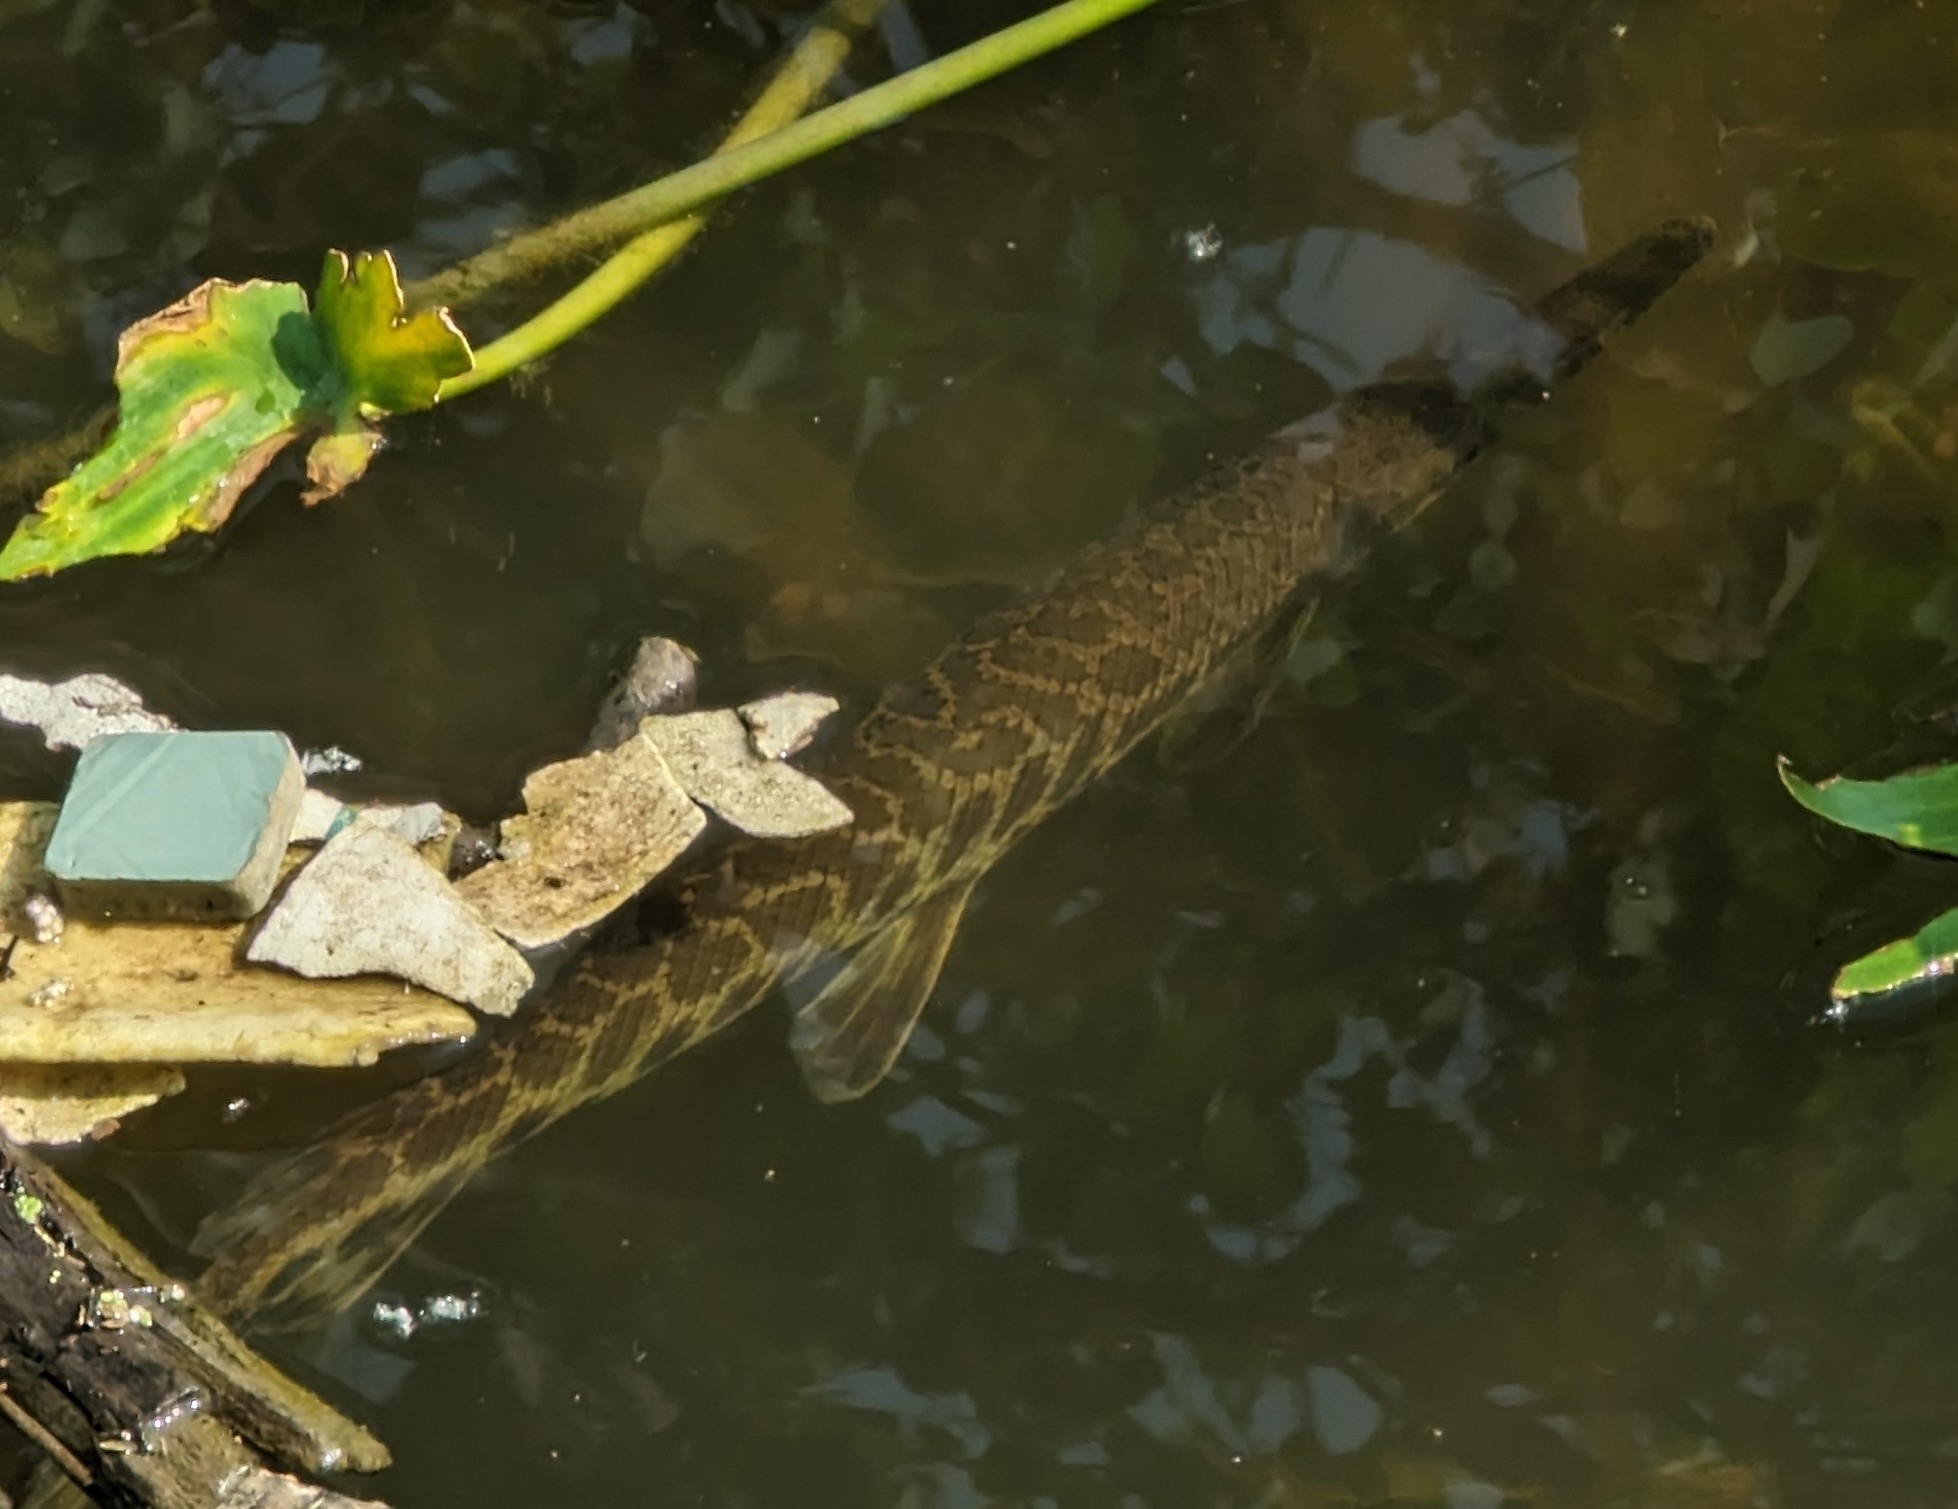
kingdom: Animalia
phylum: Chordata
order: Lepisosteiformes
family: Lepisosteidae
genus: Lepisosteus
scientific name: Lepisosteus oculatus
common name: Spotted gar
